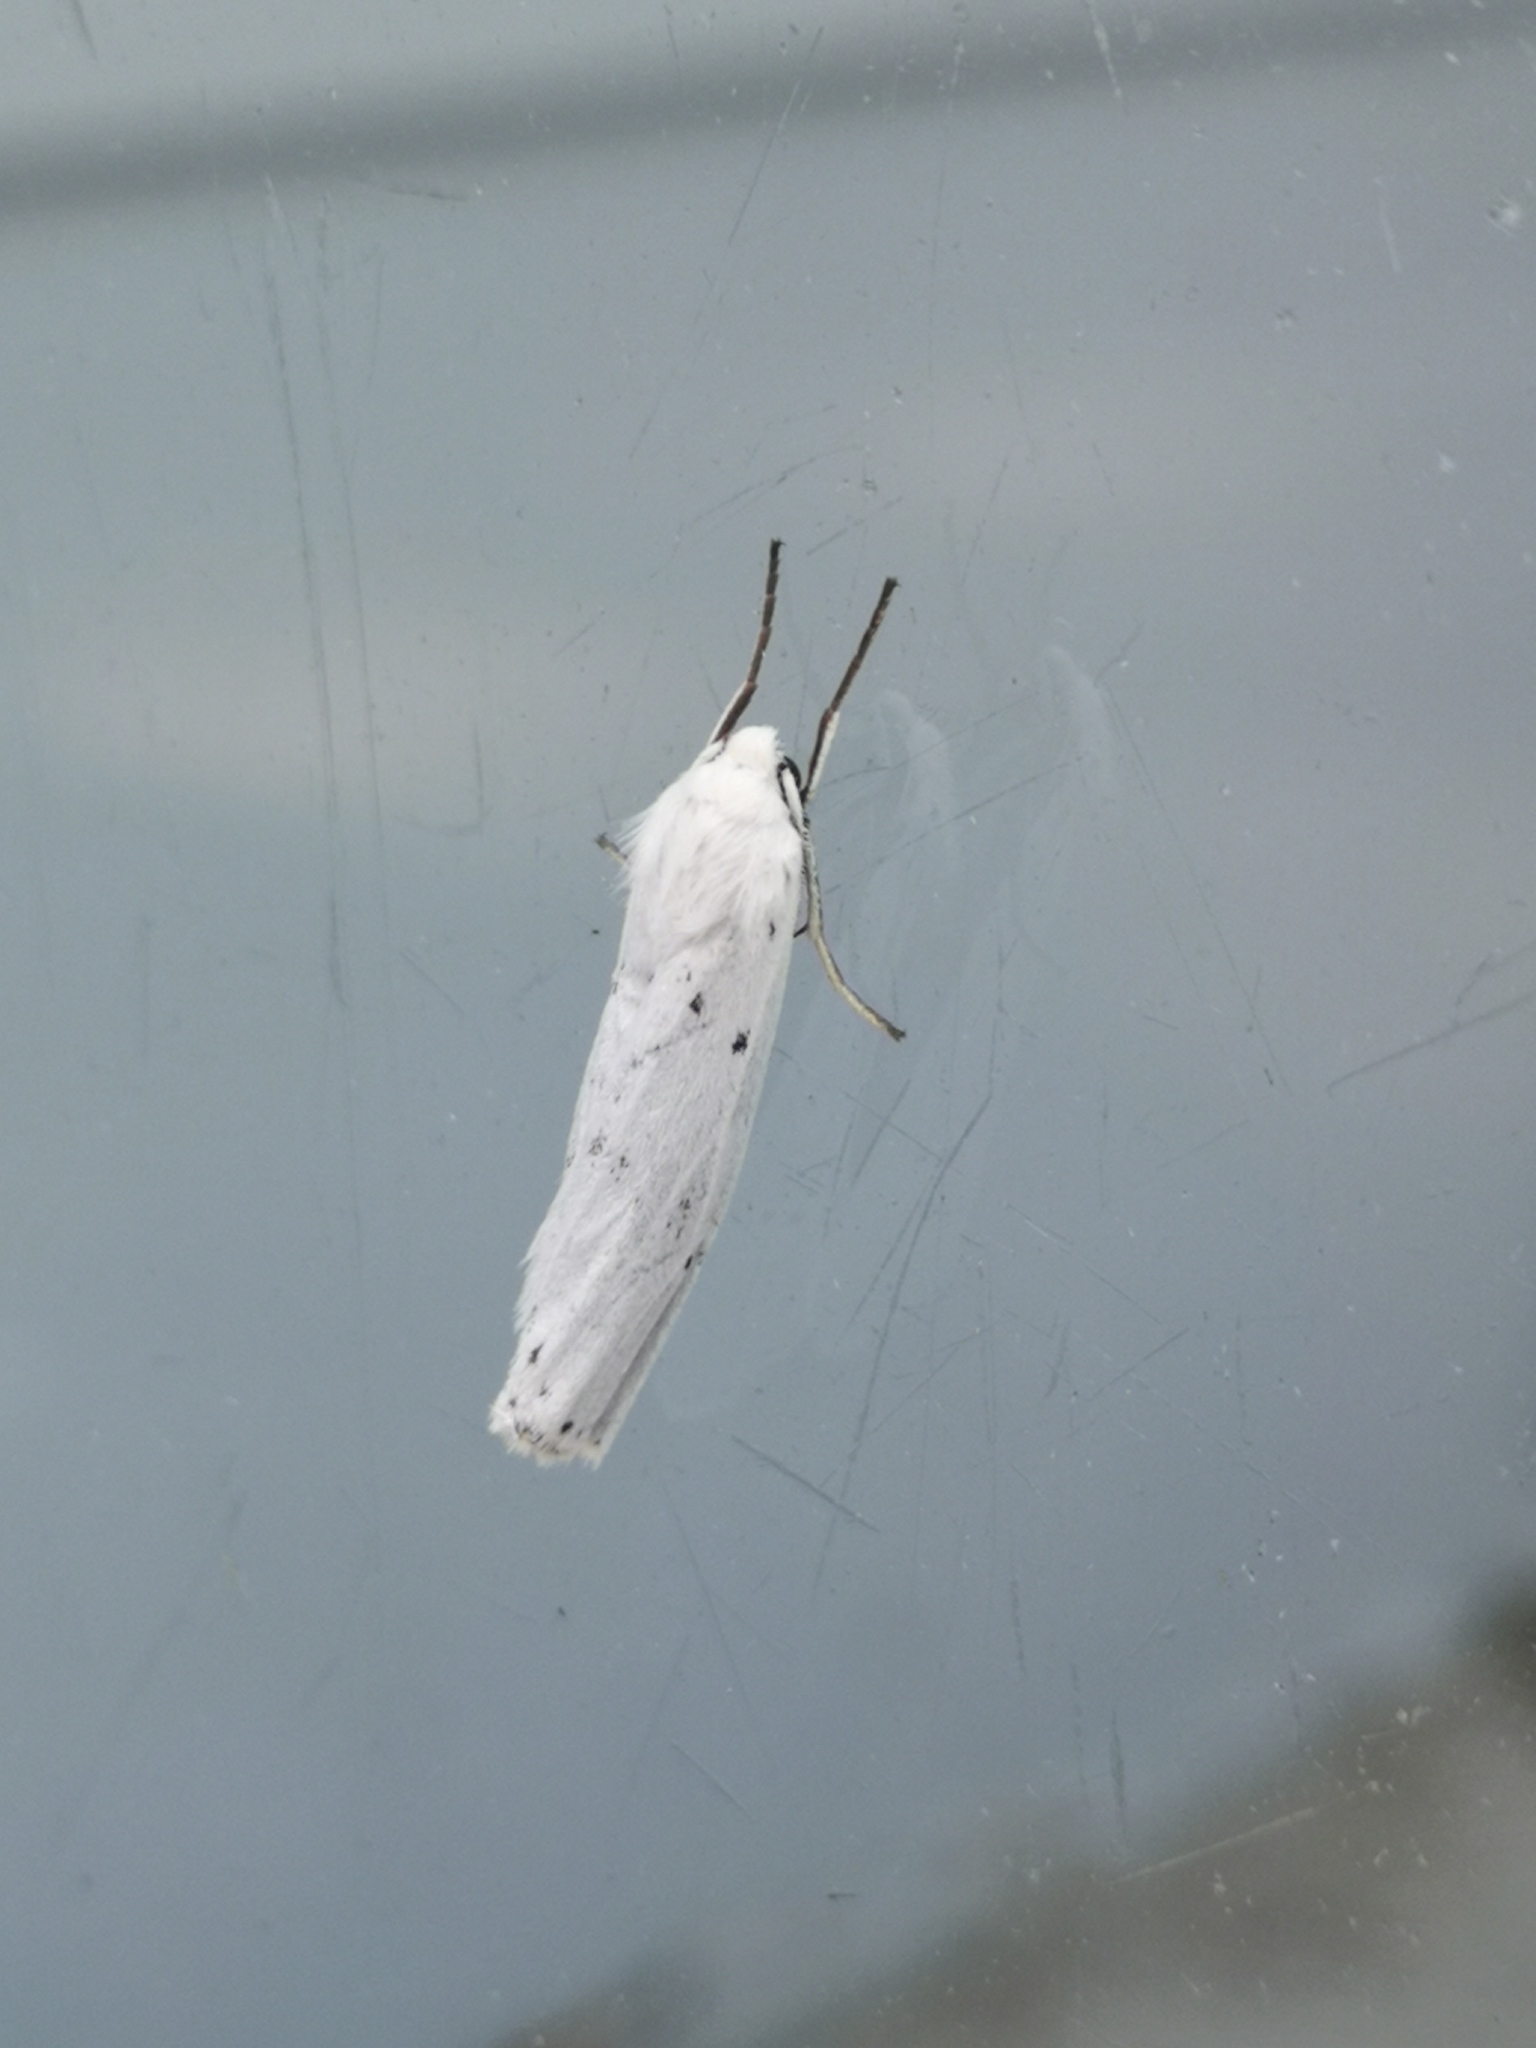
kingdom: Animalia
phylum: Arthropoda
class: Insecta
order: Lepidoptera
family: Erebidae
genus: Coscinia
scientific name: Coscinia cribraria
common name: Speckled footman
